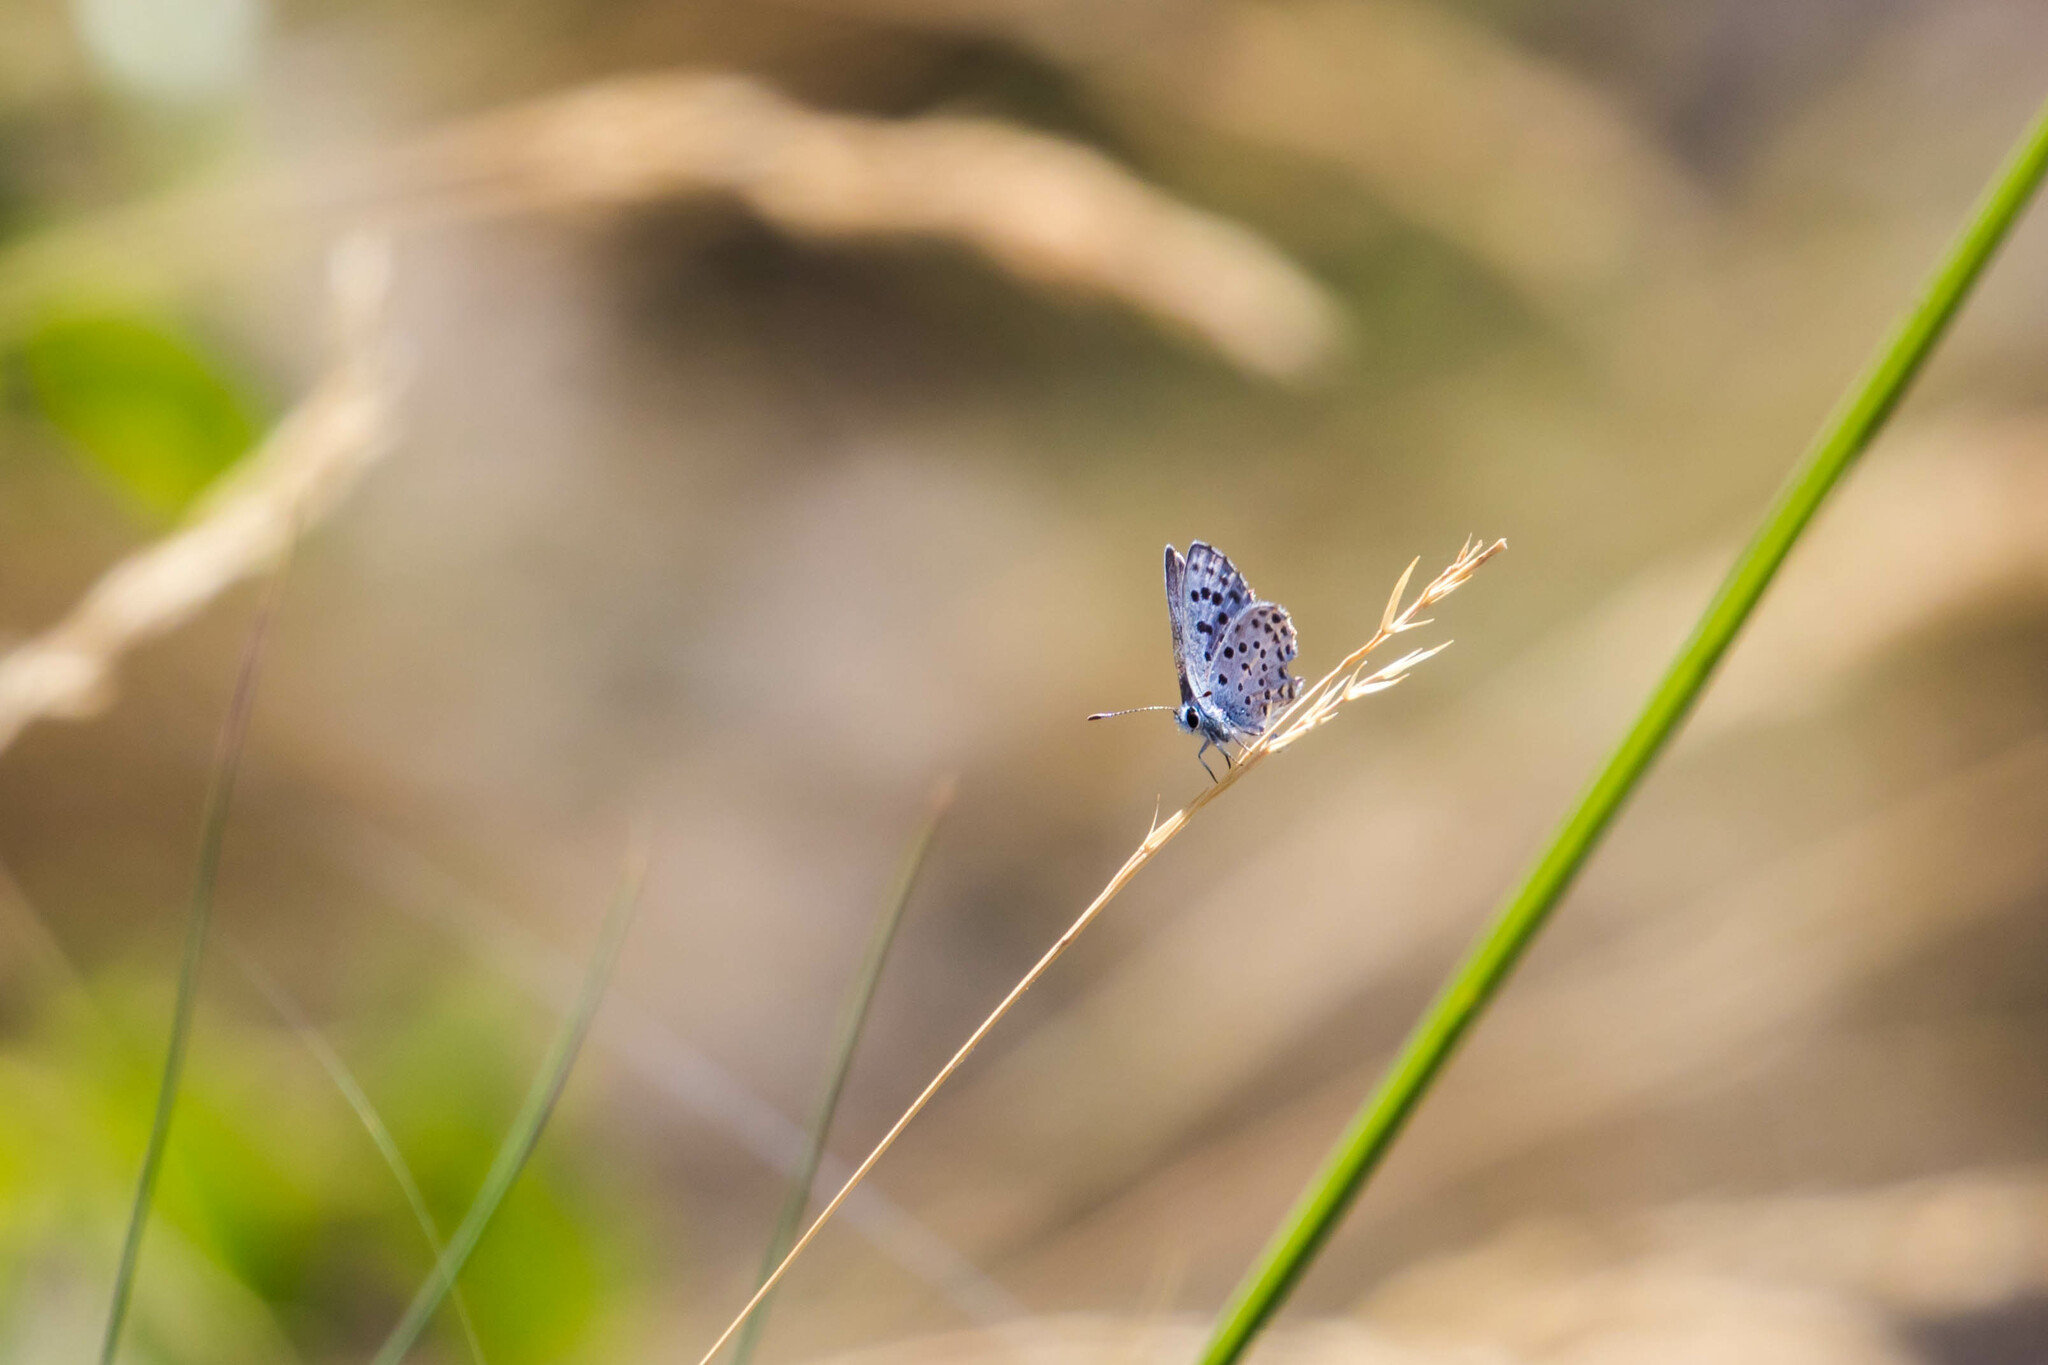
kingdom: Animalia
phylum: Arthropoda
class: Insecta
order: Lepidoptera
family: Lycaenidae
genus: Pseudophilotes
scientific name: Pseudophilotes baton
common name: Baton blue
